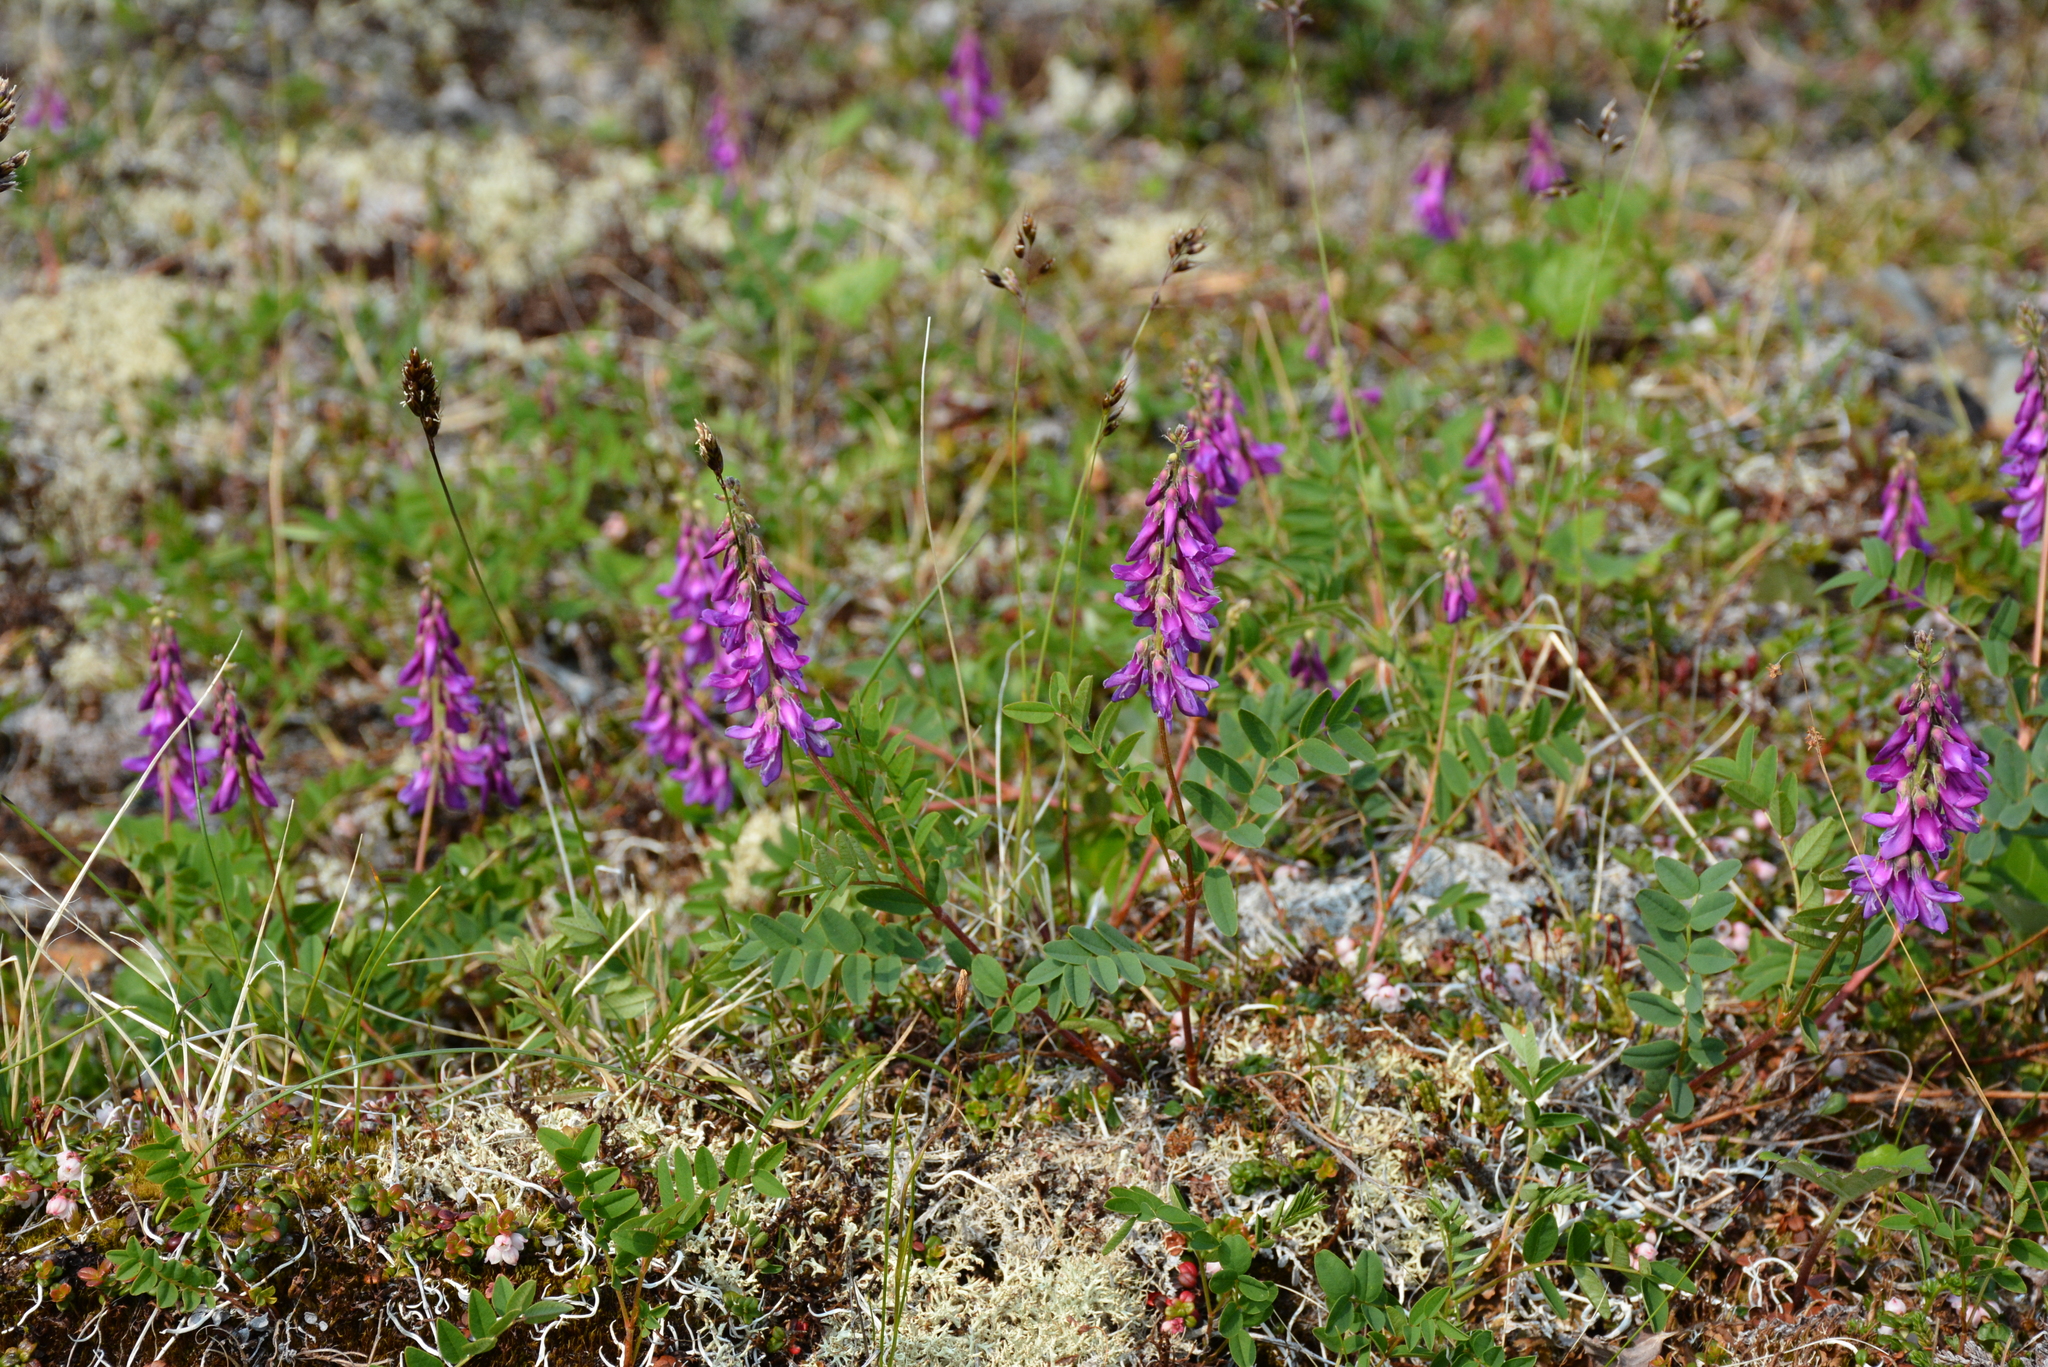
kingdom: Plantae
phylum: Tracheophyta
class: Magnoliopsida
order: Fabales
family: Fabaceae
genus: Hedysarum
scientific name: Hedysarum hedysaroides
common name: Alpine french-honeysuckle
